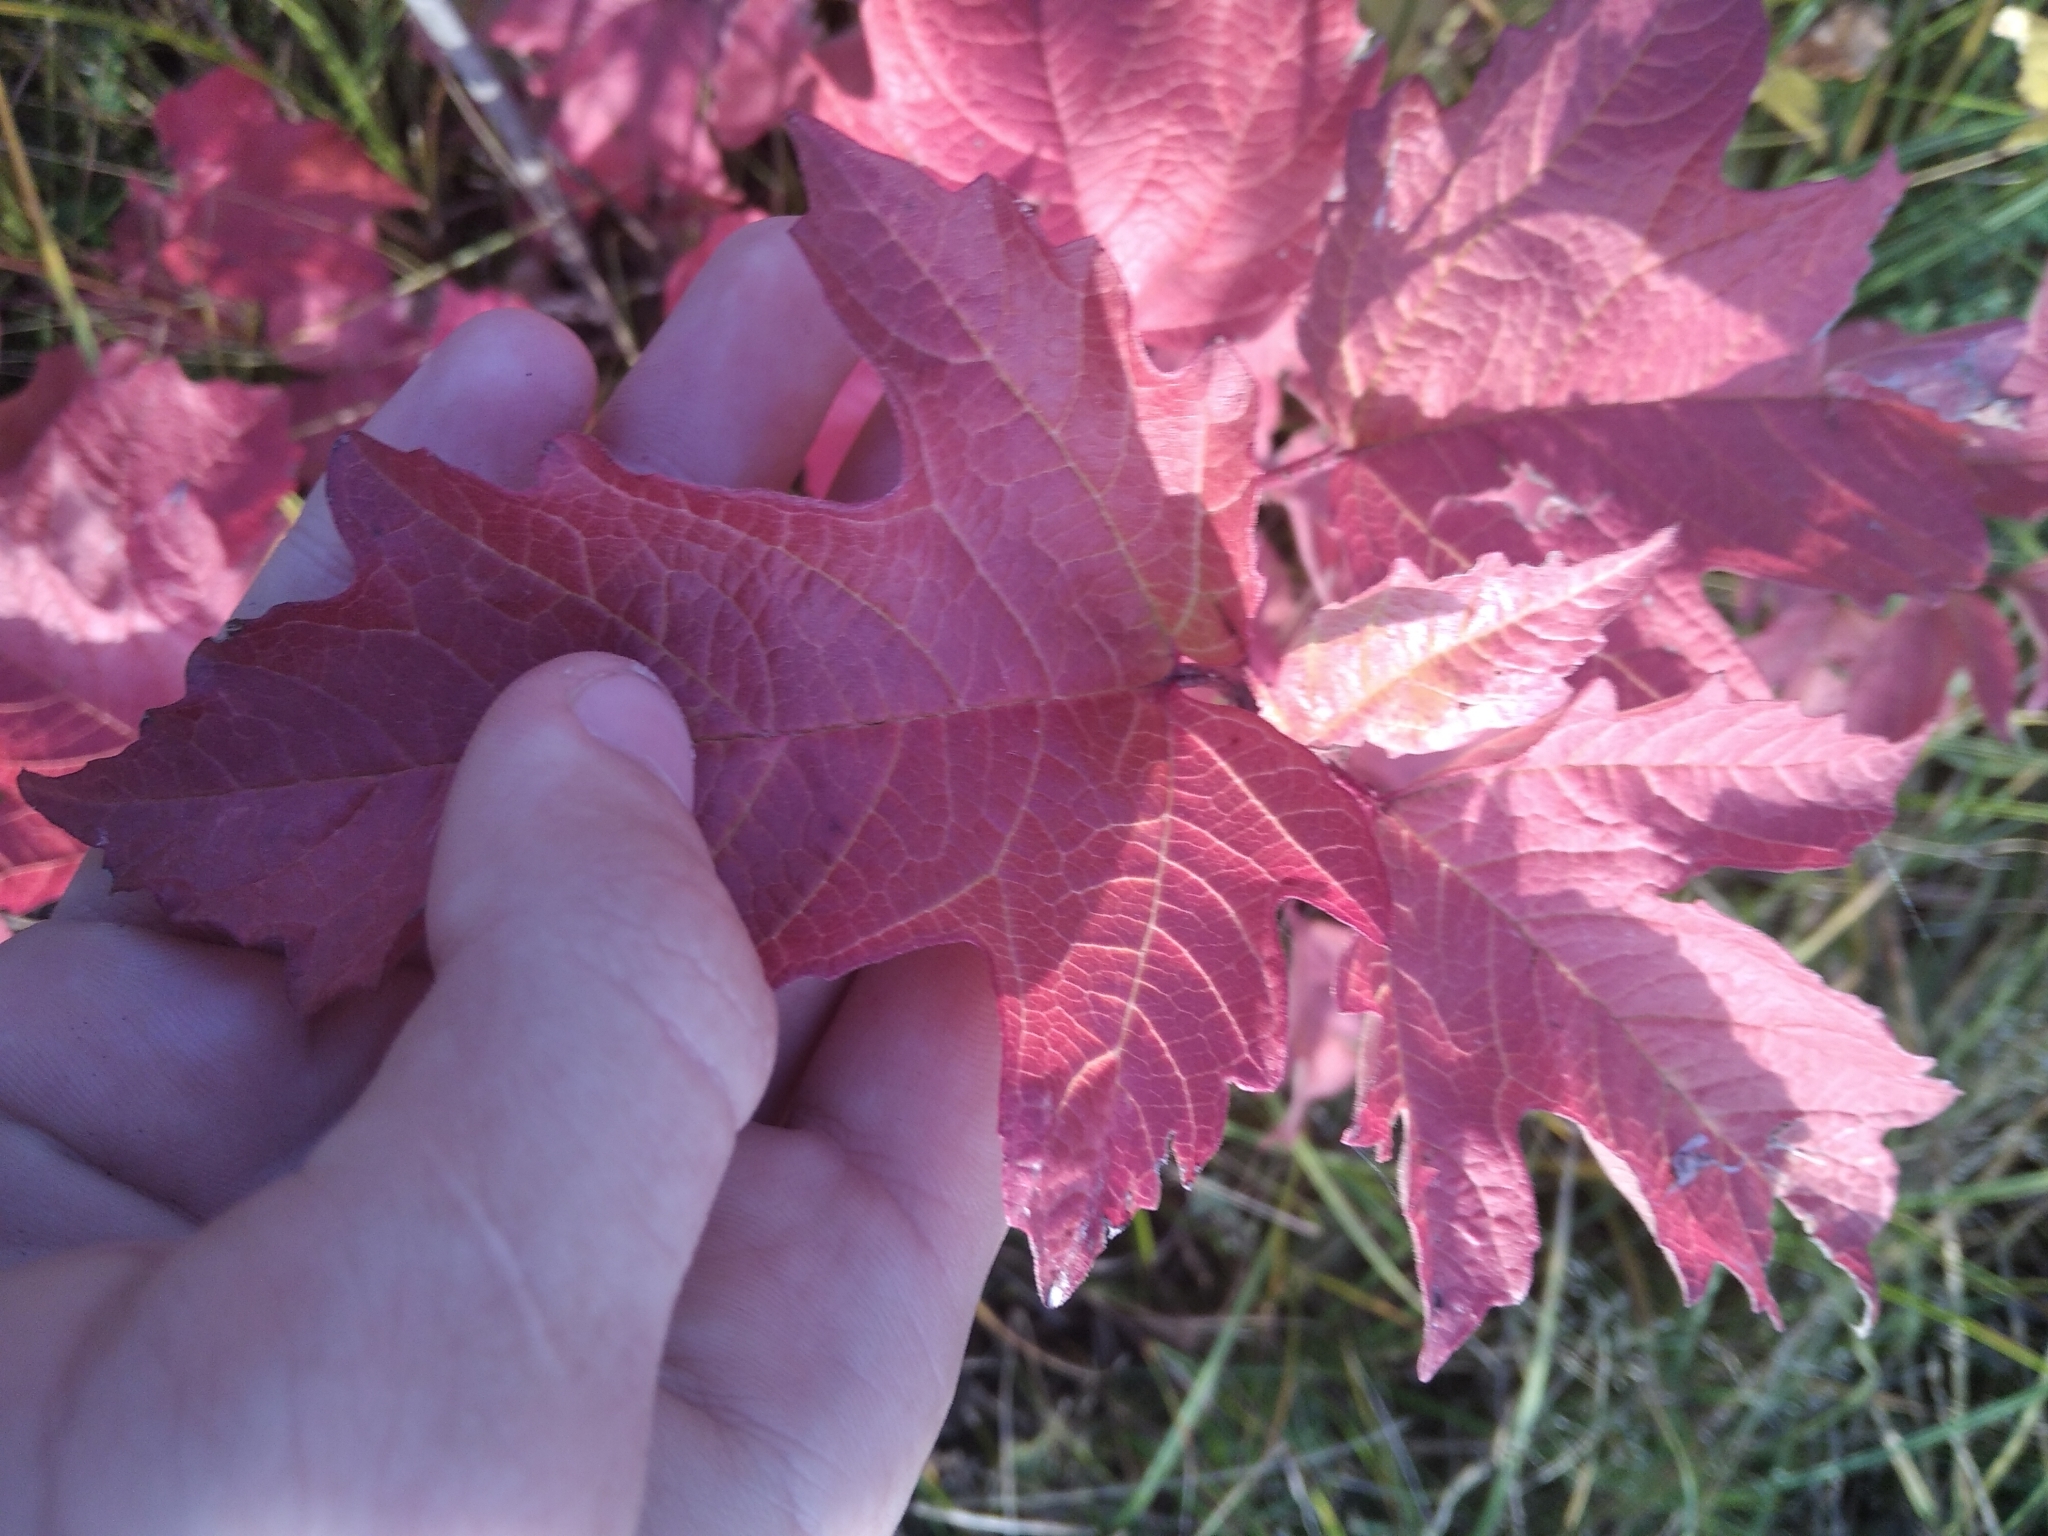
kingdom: Plantae
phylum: Tracheophyta
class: Magnoliopsida
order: Dipsacales
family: Viburnaceae
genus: Viburnum
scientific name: Viburnum opulus
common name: Guelder-rose
